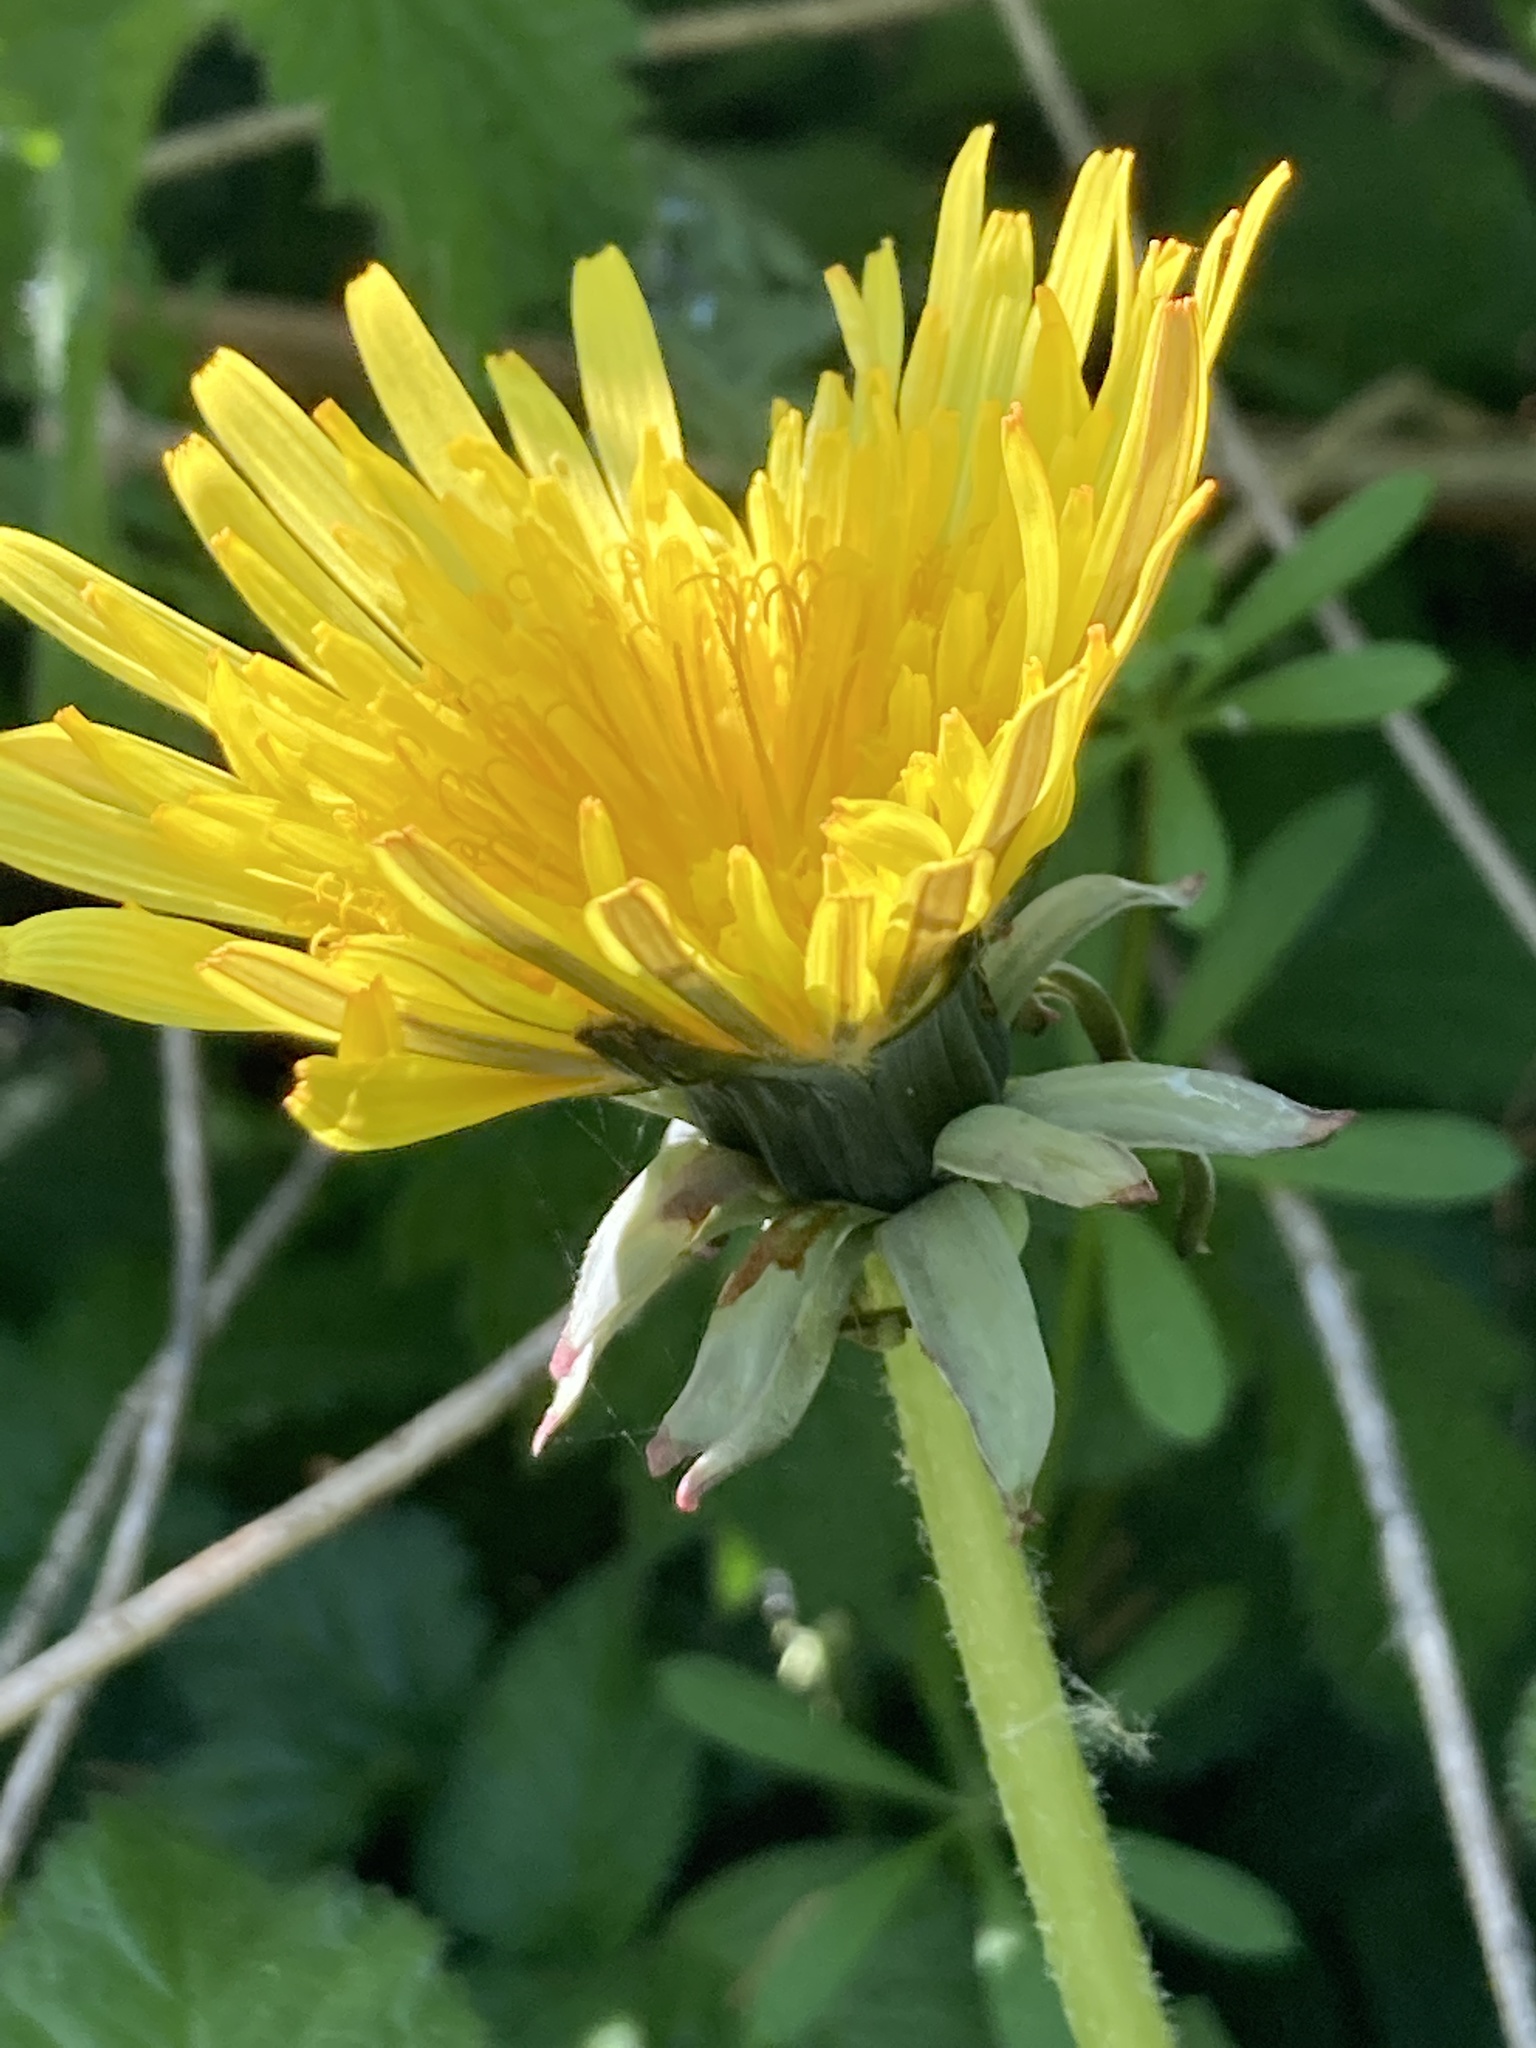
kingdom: Plantae
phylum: Tracheophyta
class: Magnoliopsida
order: Asterales
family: Asteraceae
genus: Taraxacum
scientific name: Taraxacum officinale
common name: Common dandelion
